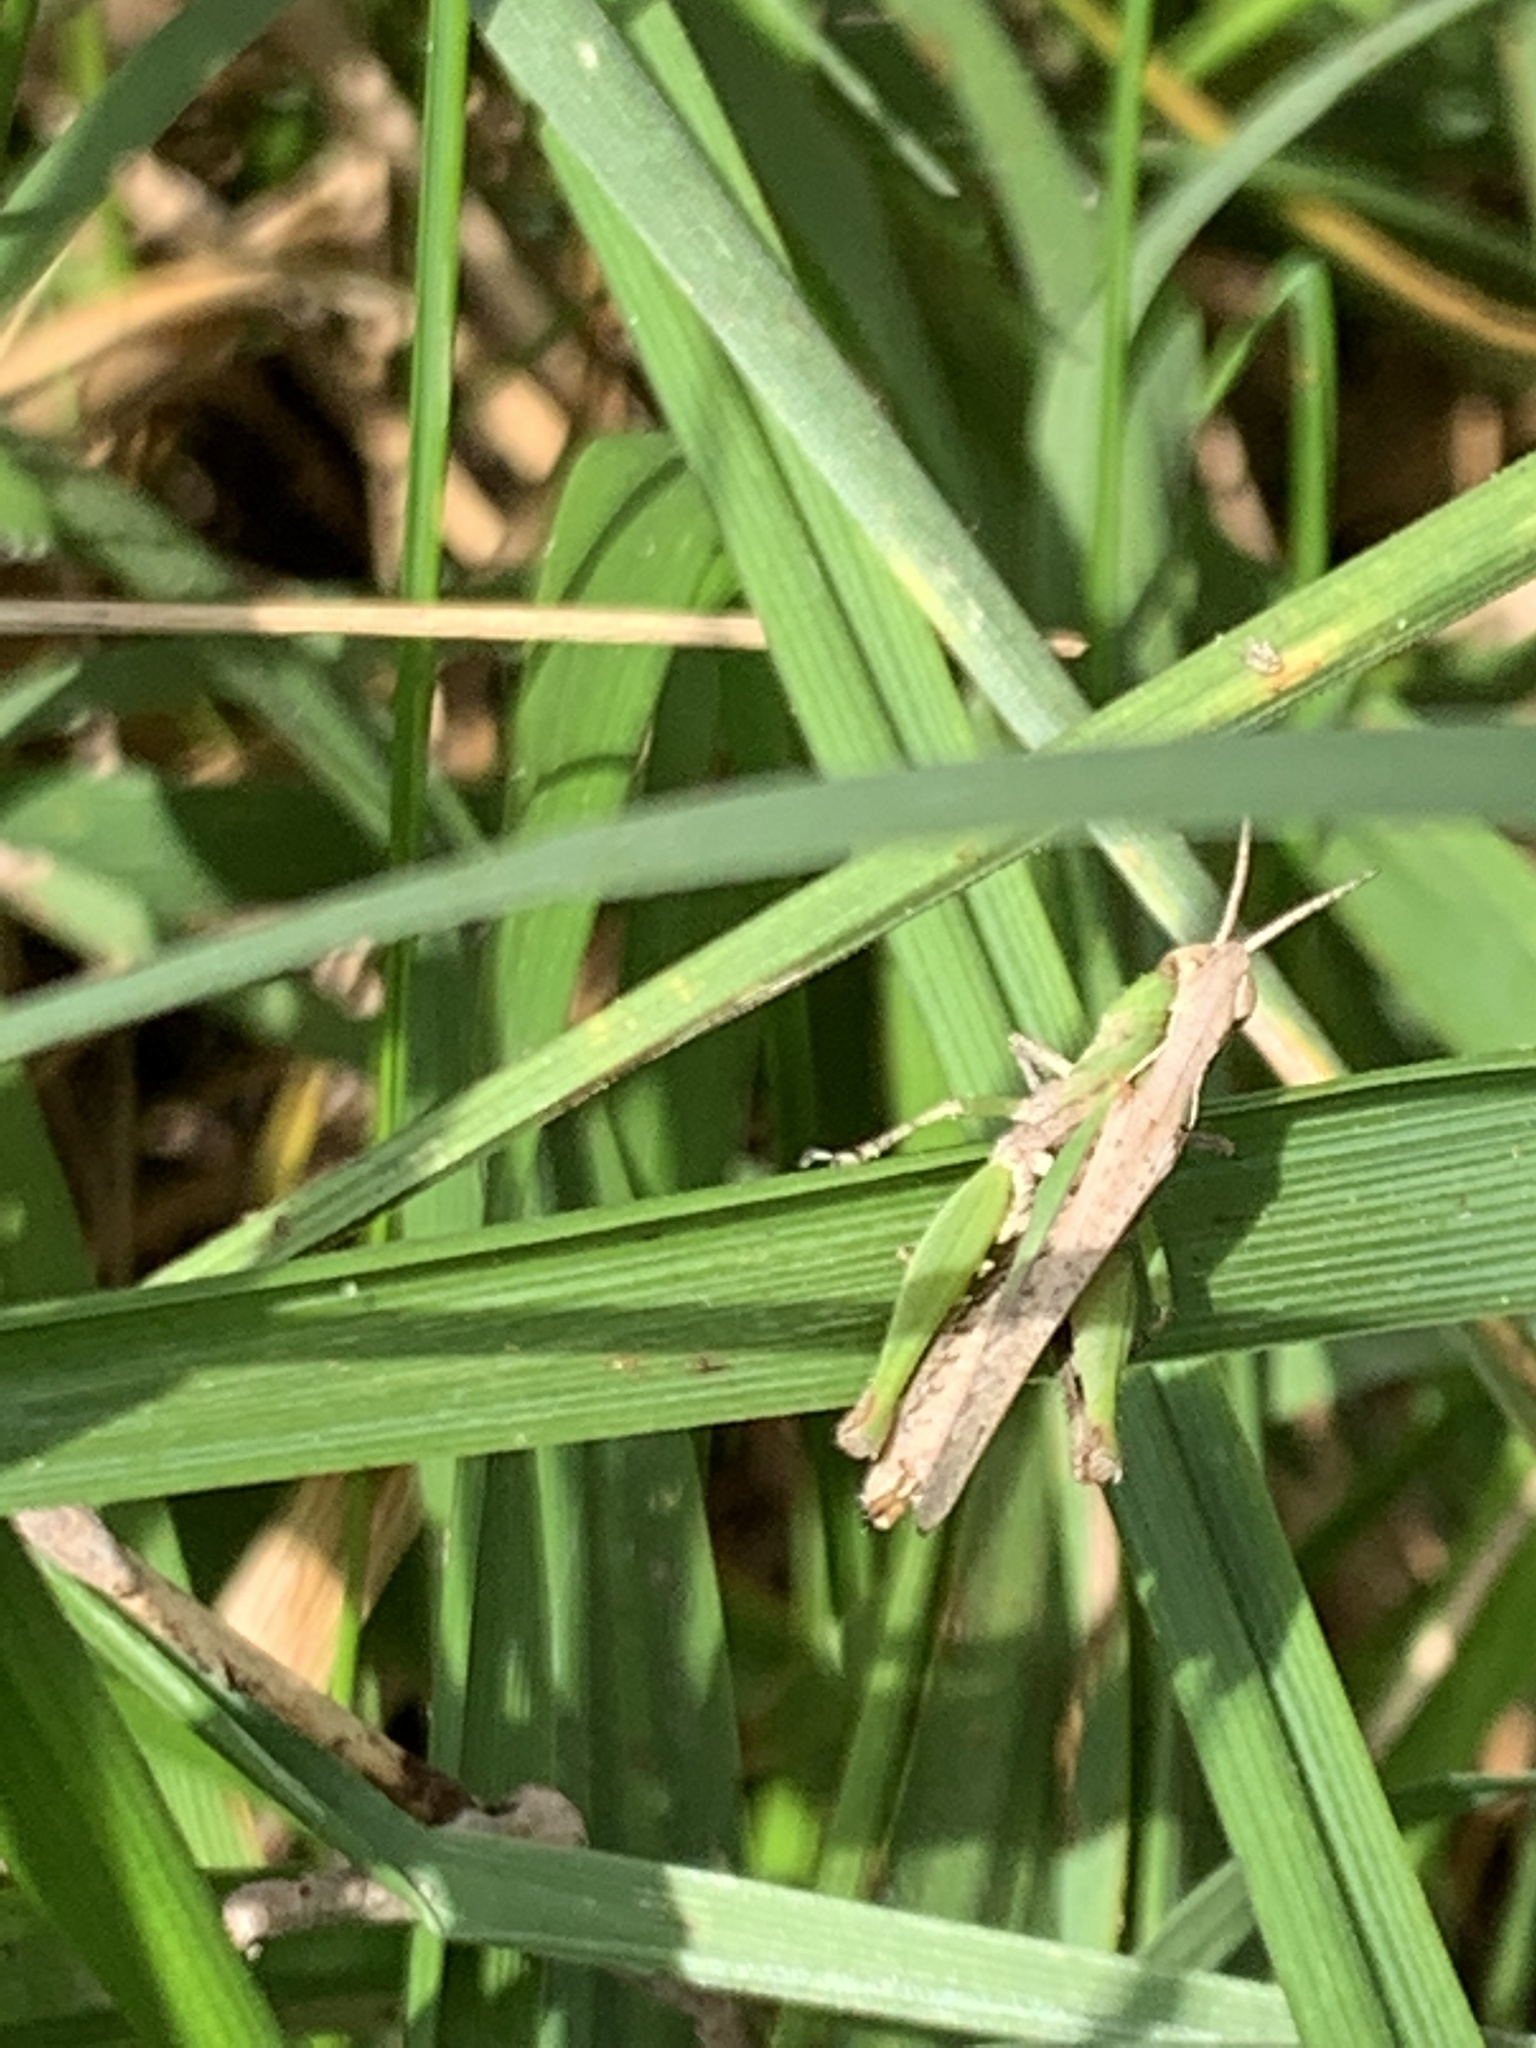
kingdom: Animalia
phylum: Arthropoda
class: Insecta
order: Orthoptera
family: Acrididae
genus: Orphulella
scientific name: Orphulella punctata
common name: Slant-faced grasshopper
